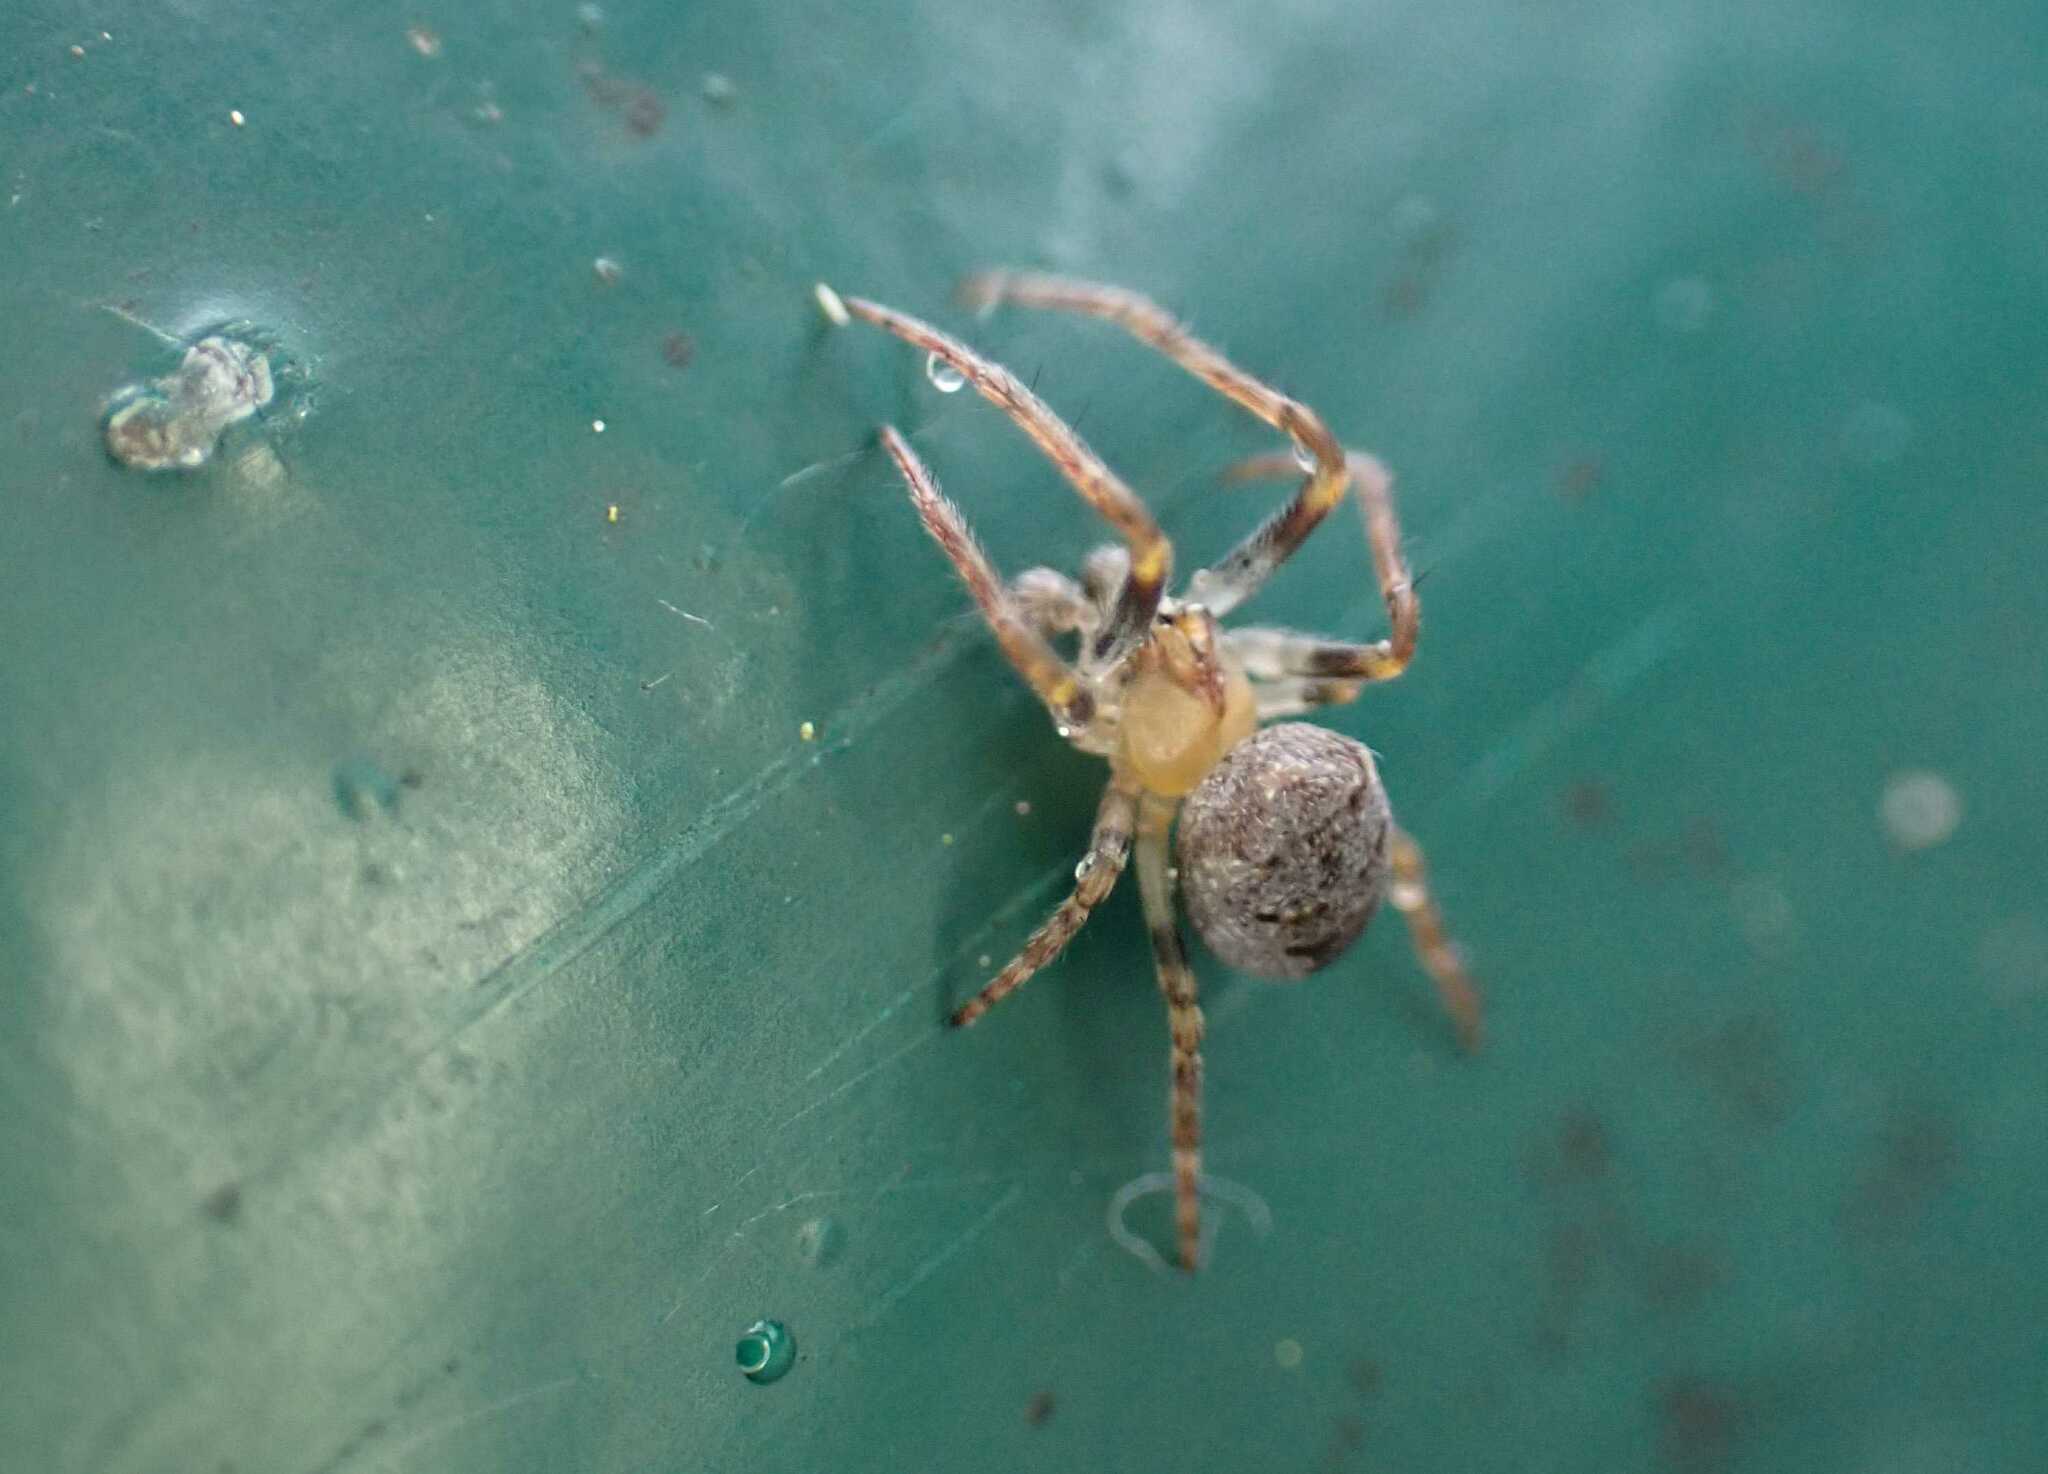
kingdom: Animalia
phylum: Arthropoda
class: Arachnida
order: Araneae
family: Araneidae
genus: Zilla
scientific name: Zilla diodia
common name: Zilla diodia
